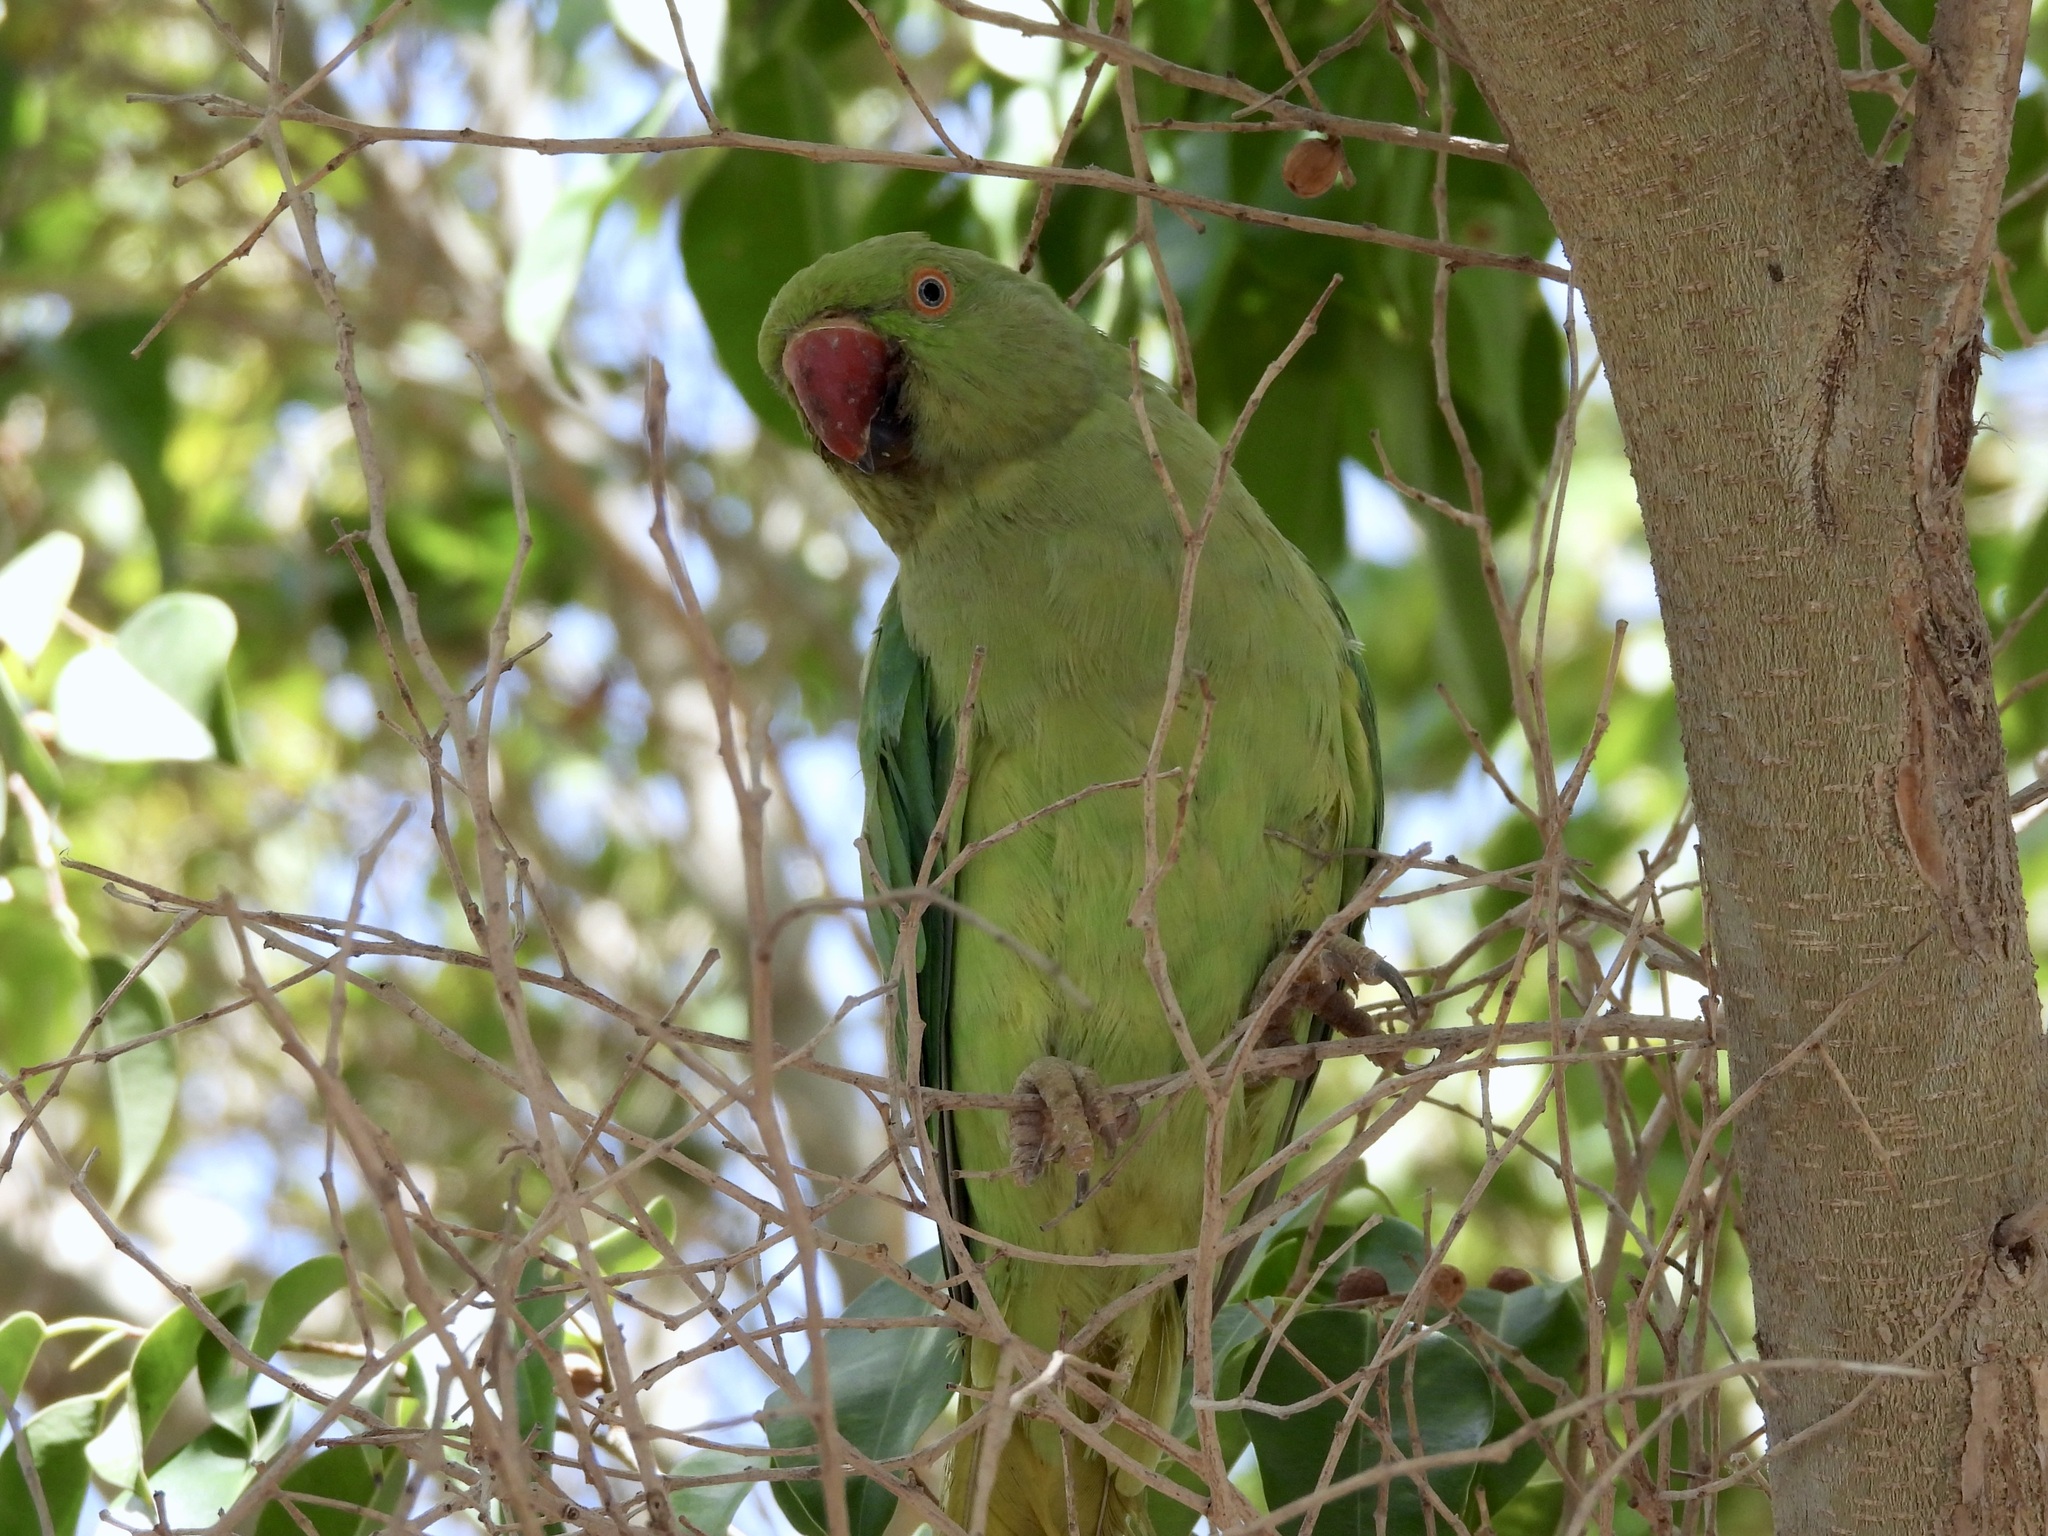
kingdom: Animalia
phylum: Chordata
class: Aves
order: Psittaciformes
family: Psittacidae
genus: Psittacula
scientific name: Psittacula krameri
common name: Rose-ringed parakeet
